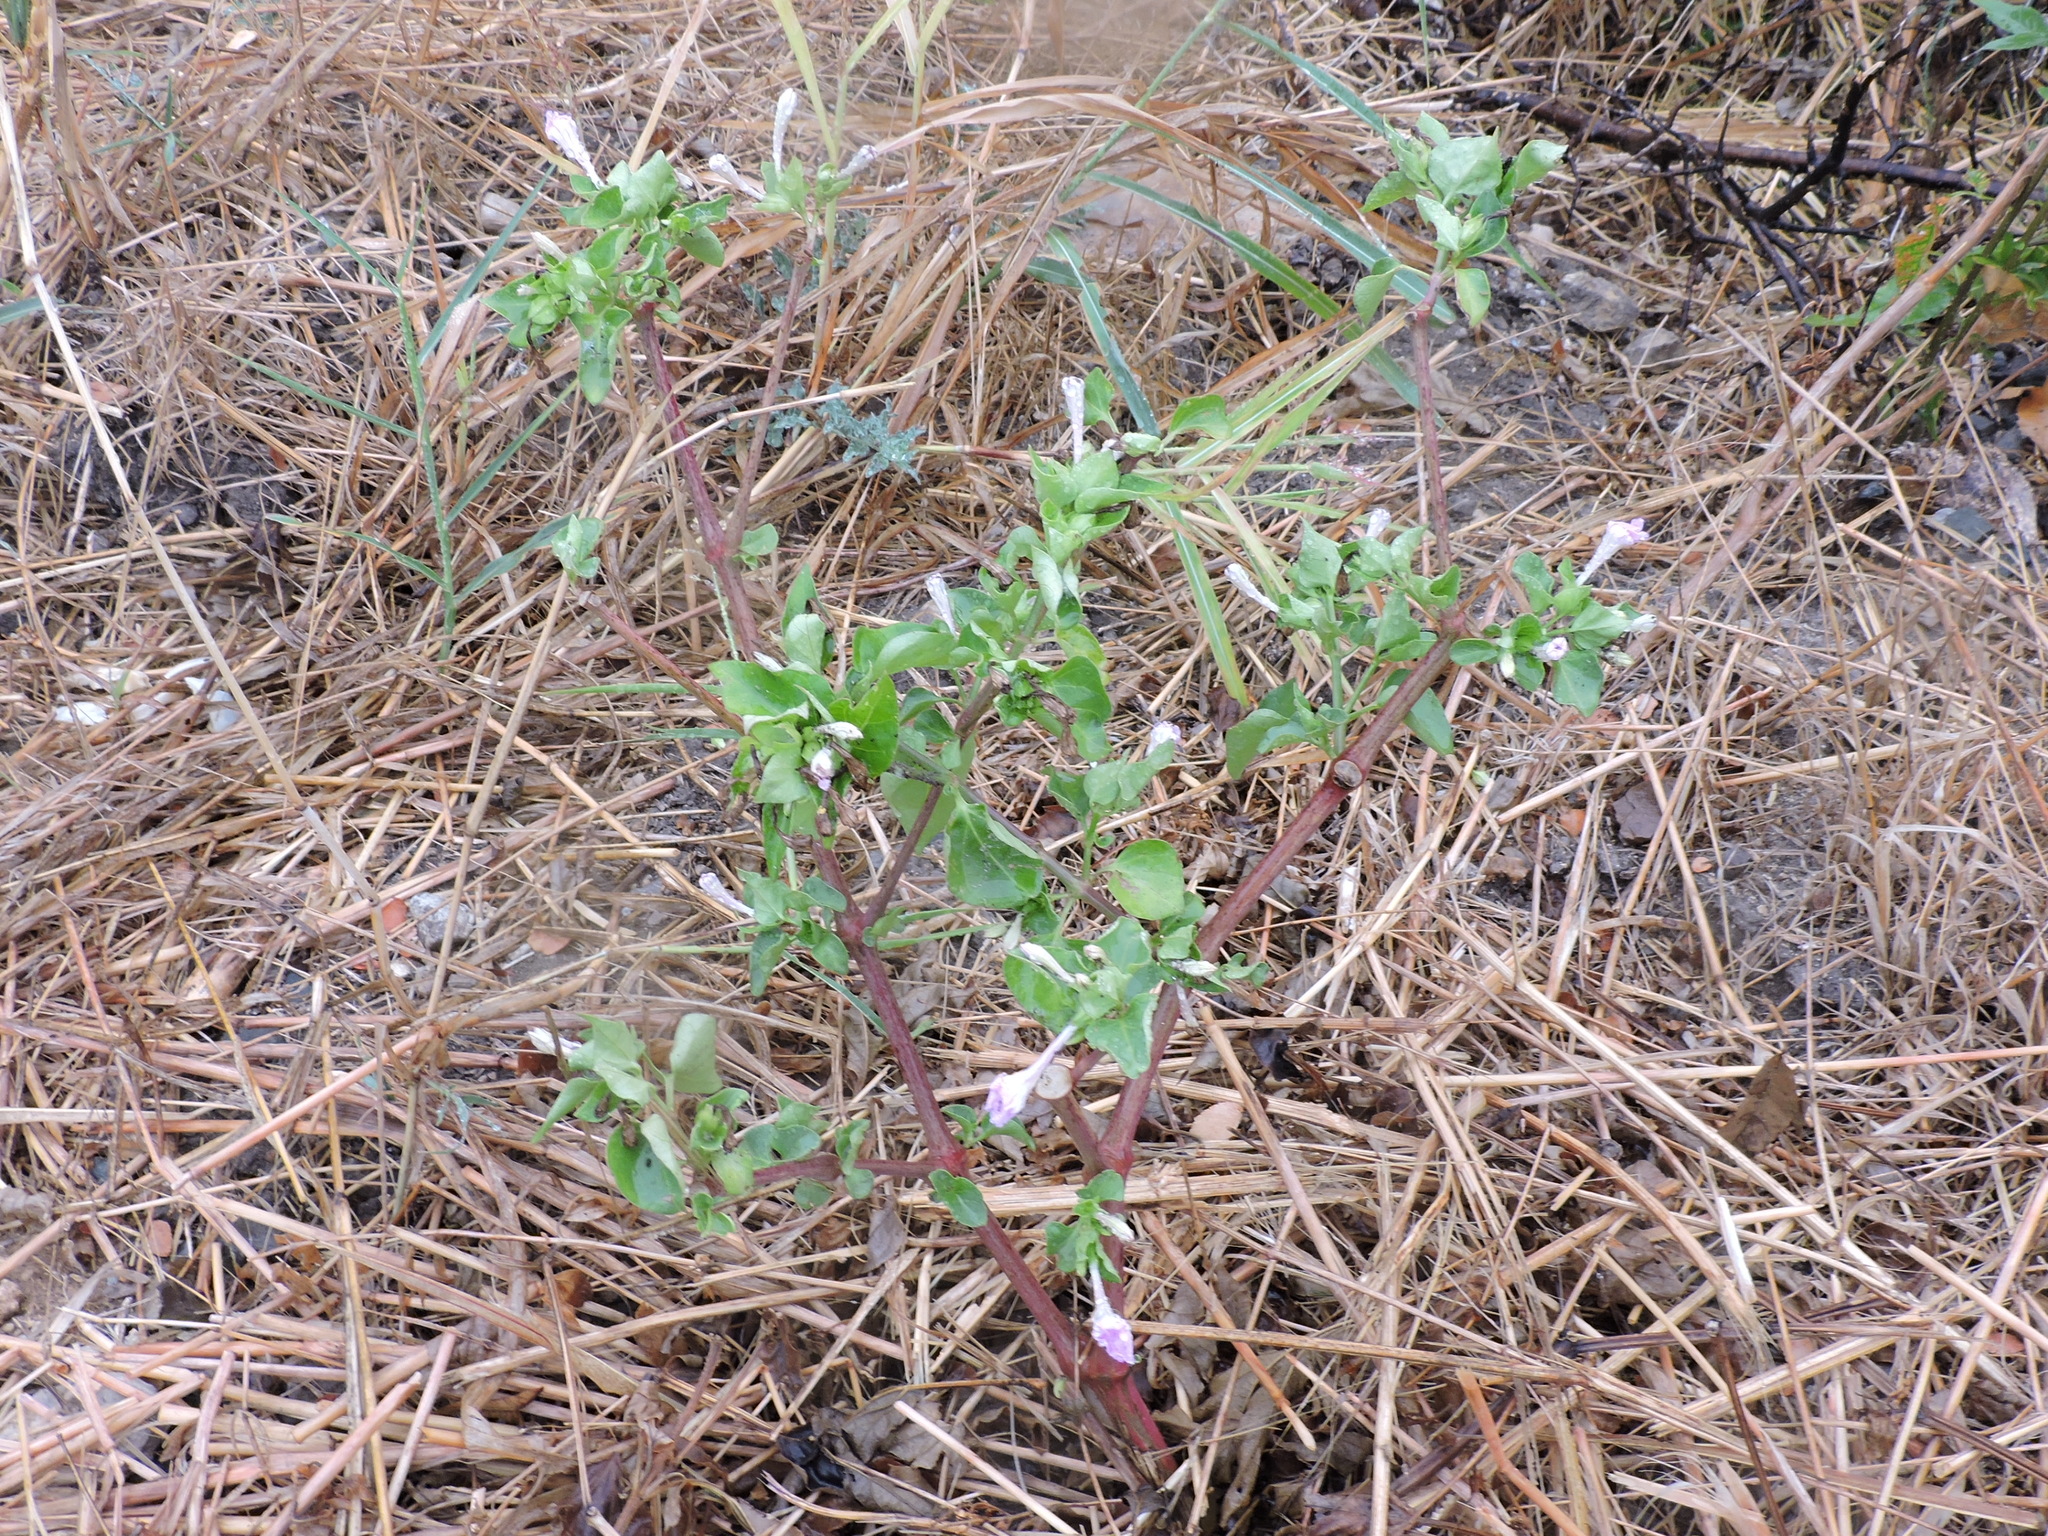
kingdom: Plantae
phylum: Tracheophyta
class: Magnoliopsida
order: Caryophyllales
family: Nyctaginaceae
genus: Mirabilis
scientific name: Mirabilis jalapa
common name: Marvel-of-peru
